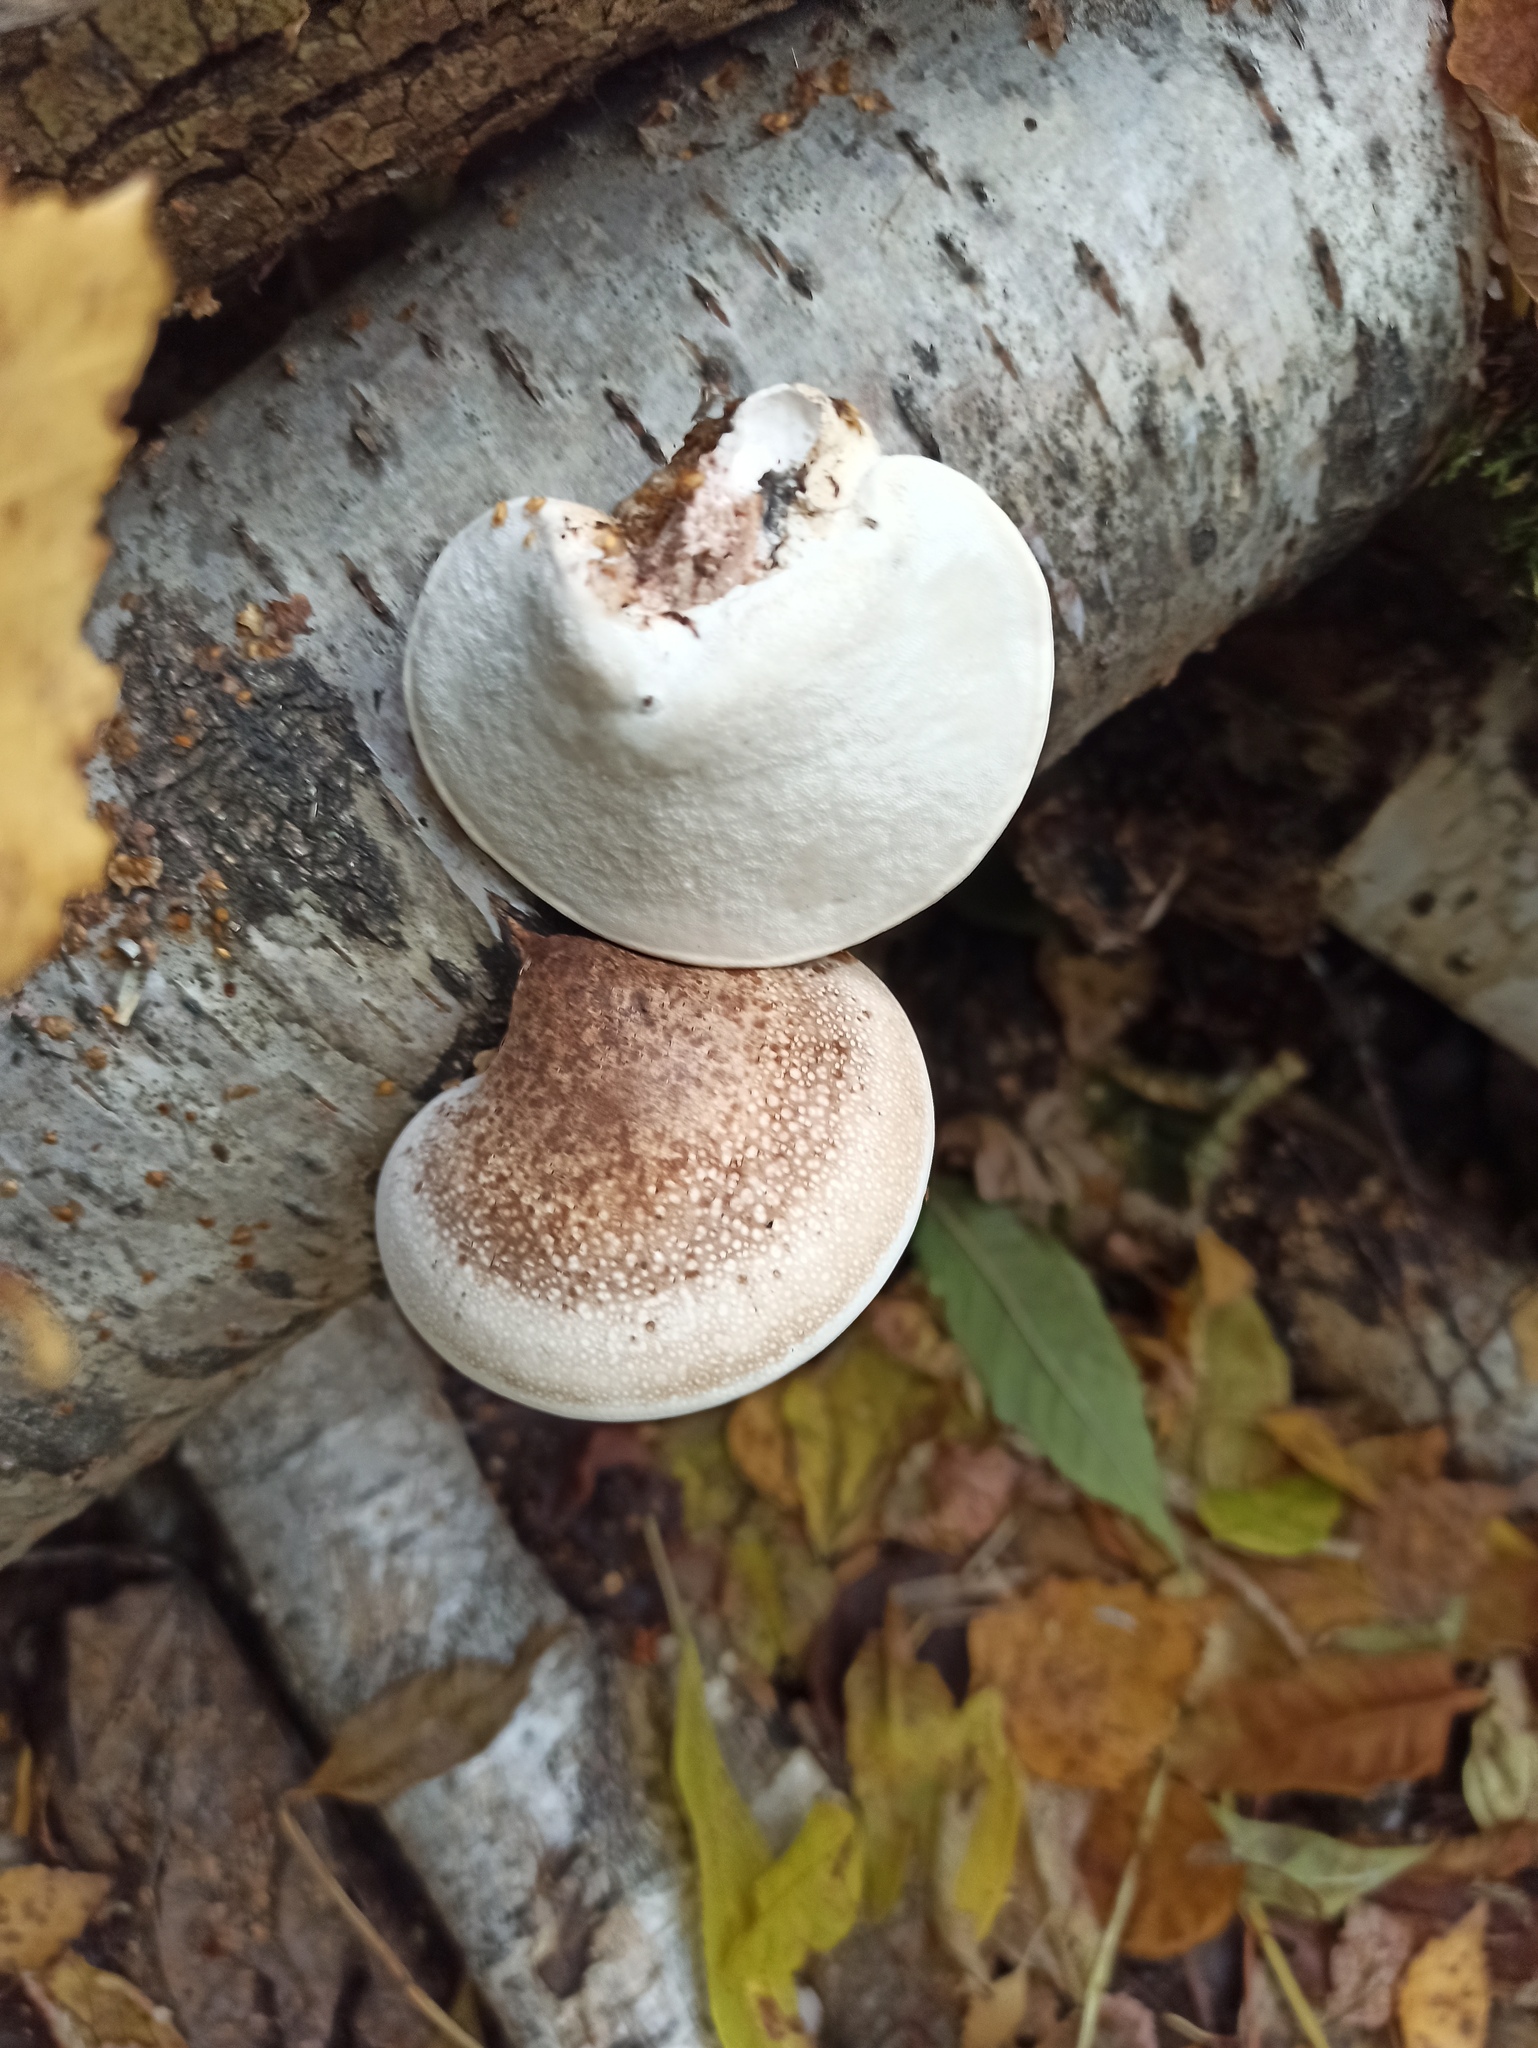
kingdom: Fungi
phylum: Basidiomycota
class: Agaricomycetes
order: Polyporales
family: Fomitopsidaceae
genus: Fomitopsis
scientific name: Fomitopsis betulina
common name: Birch polypore
